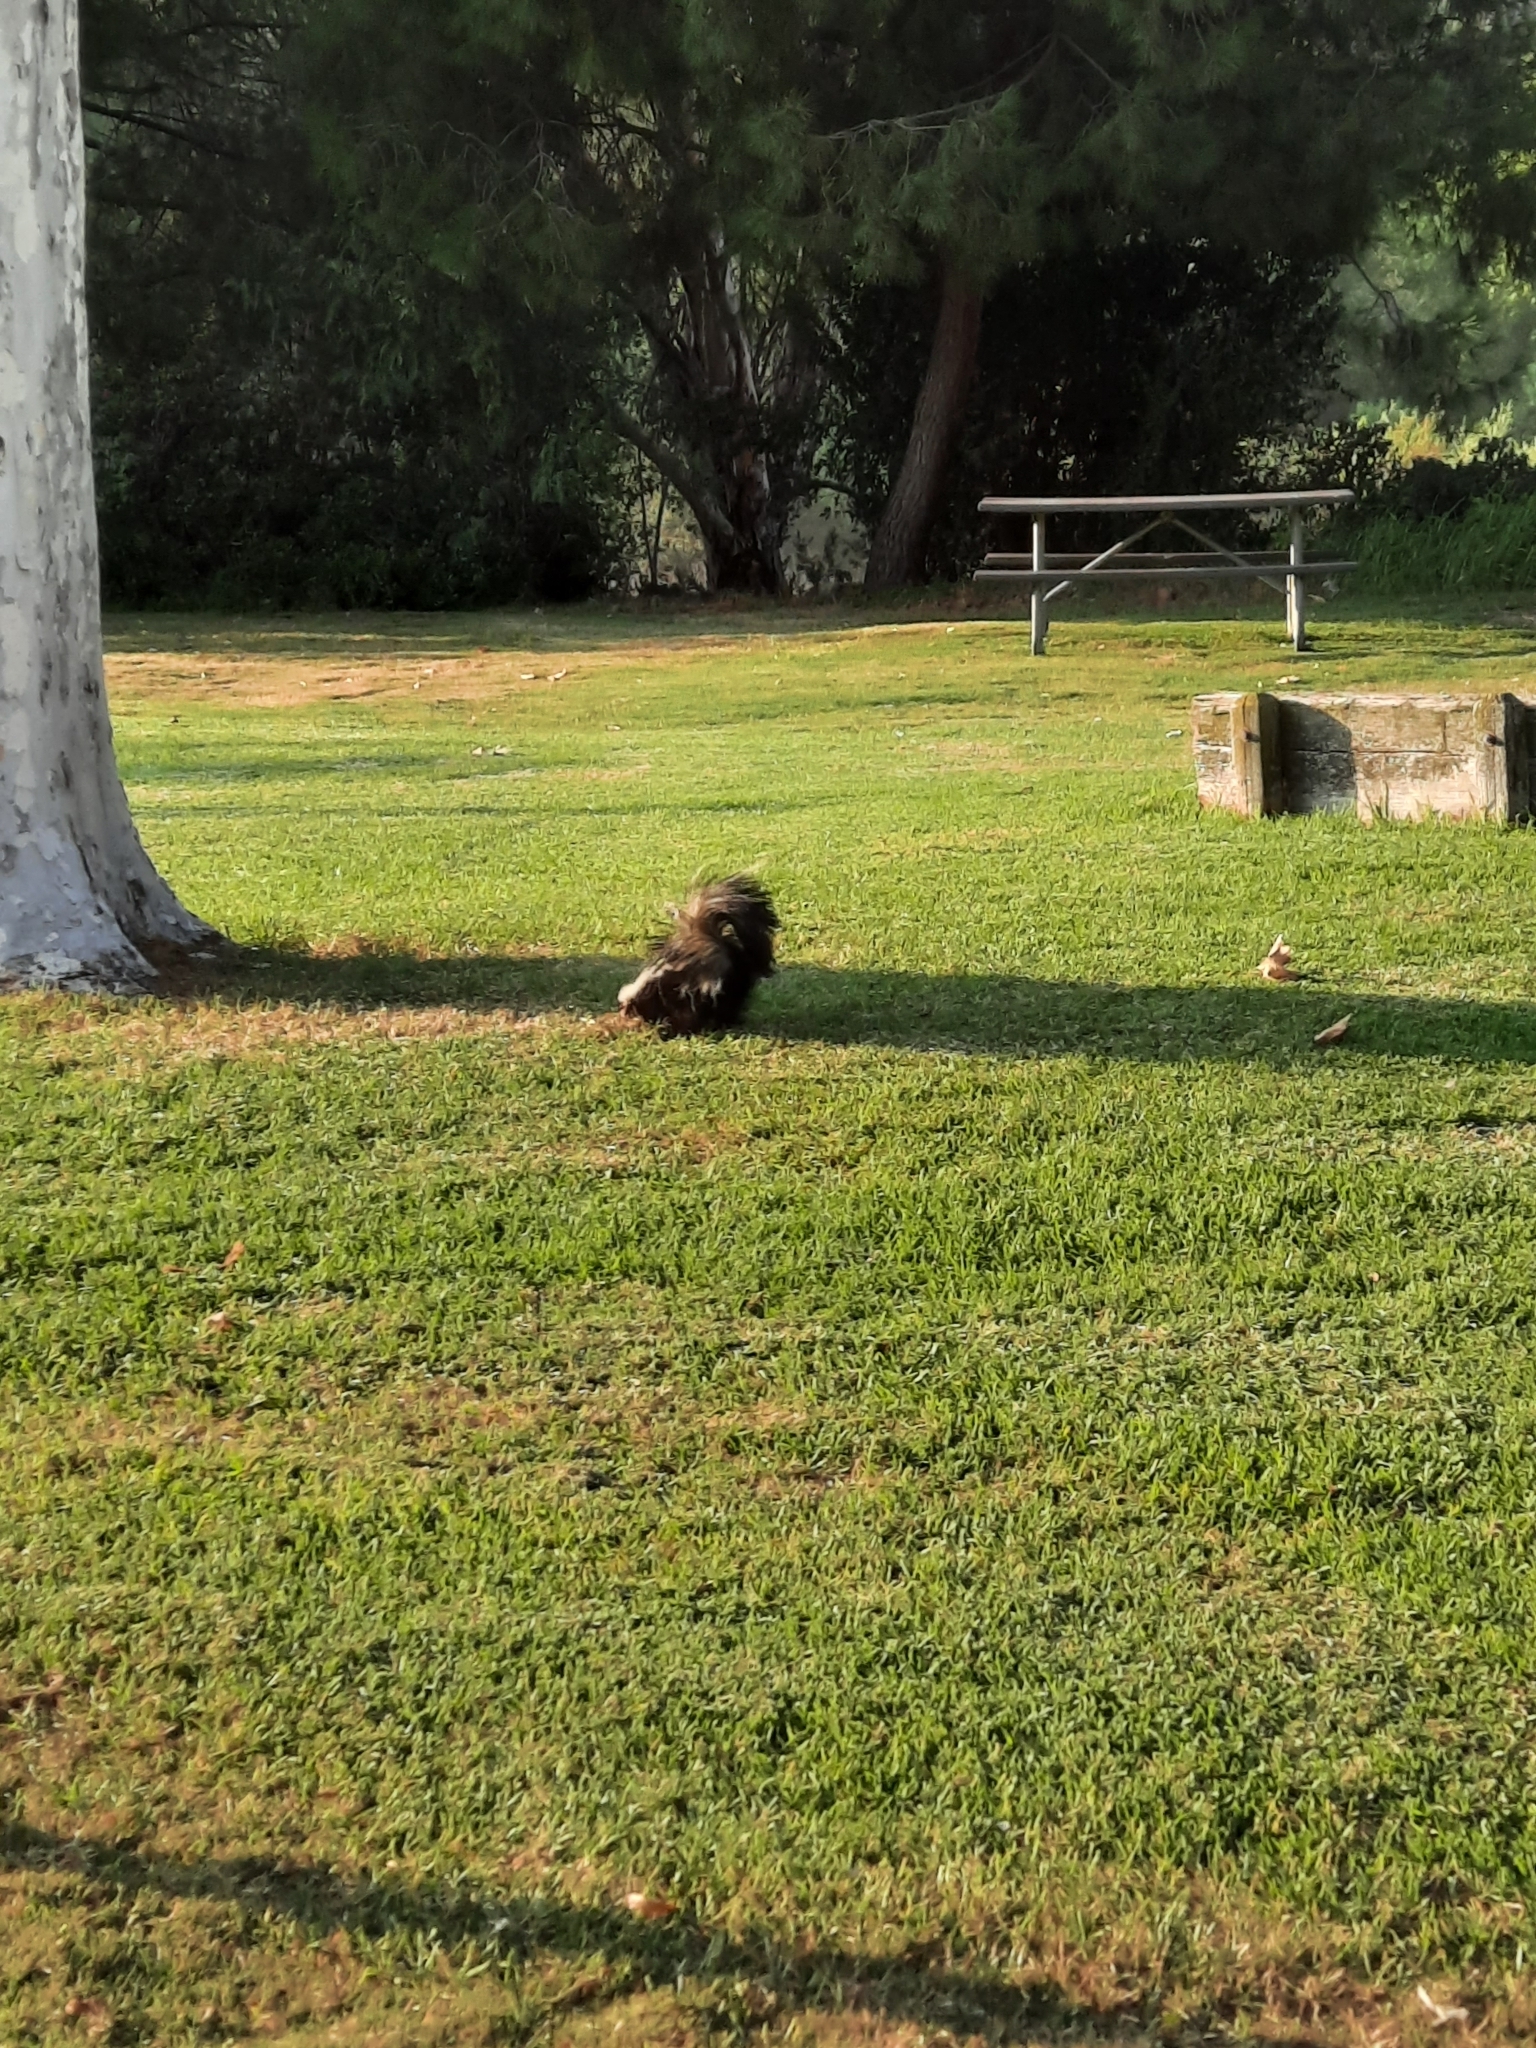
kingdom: Animalia
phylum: Chordata
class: Mammalia
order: Carnivora
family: Mephitidae
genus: Mephitis
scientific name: Mephitis mephitis
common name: Striped skunk
